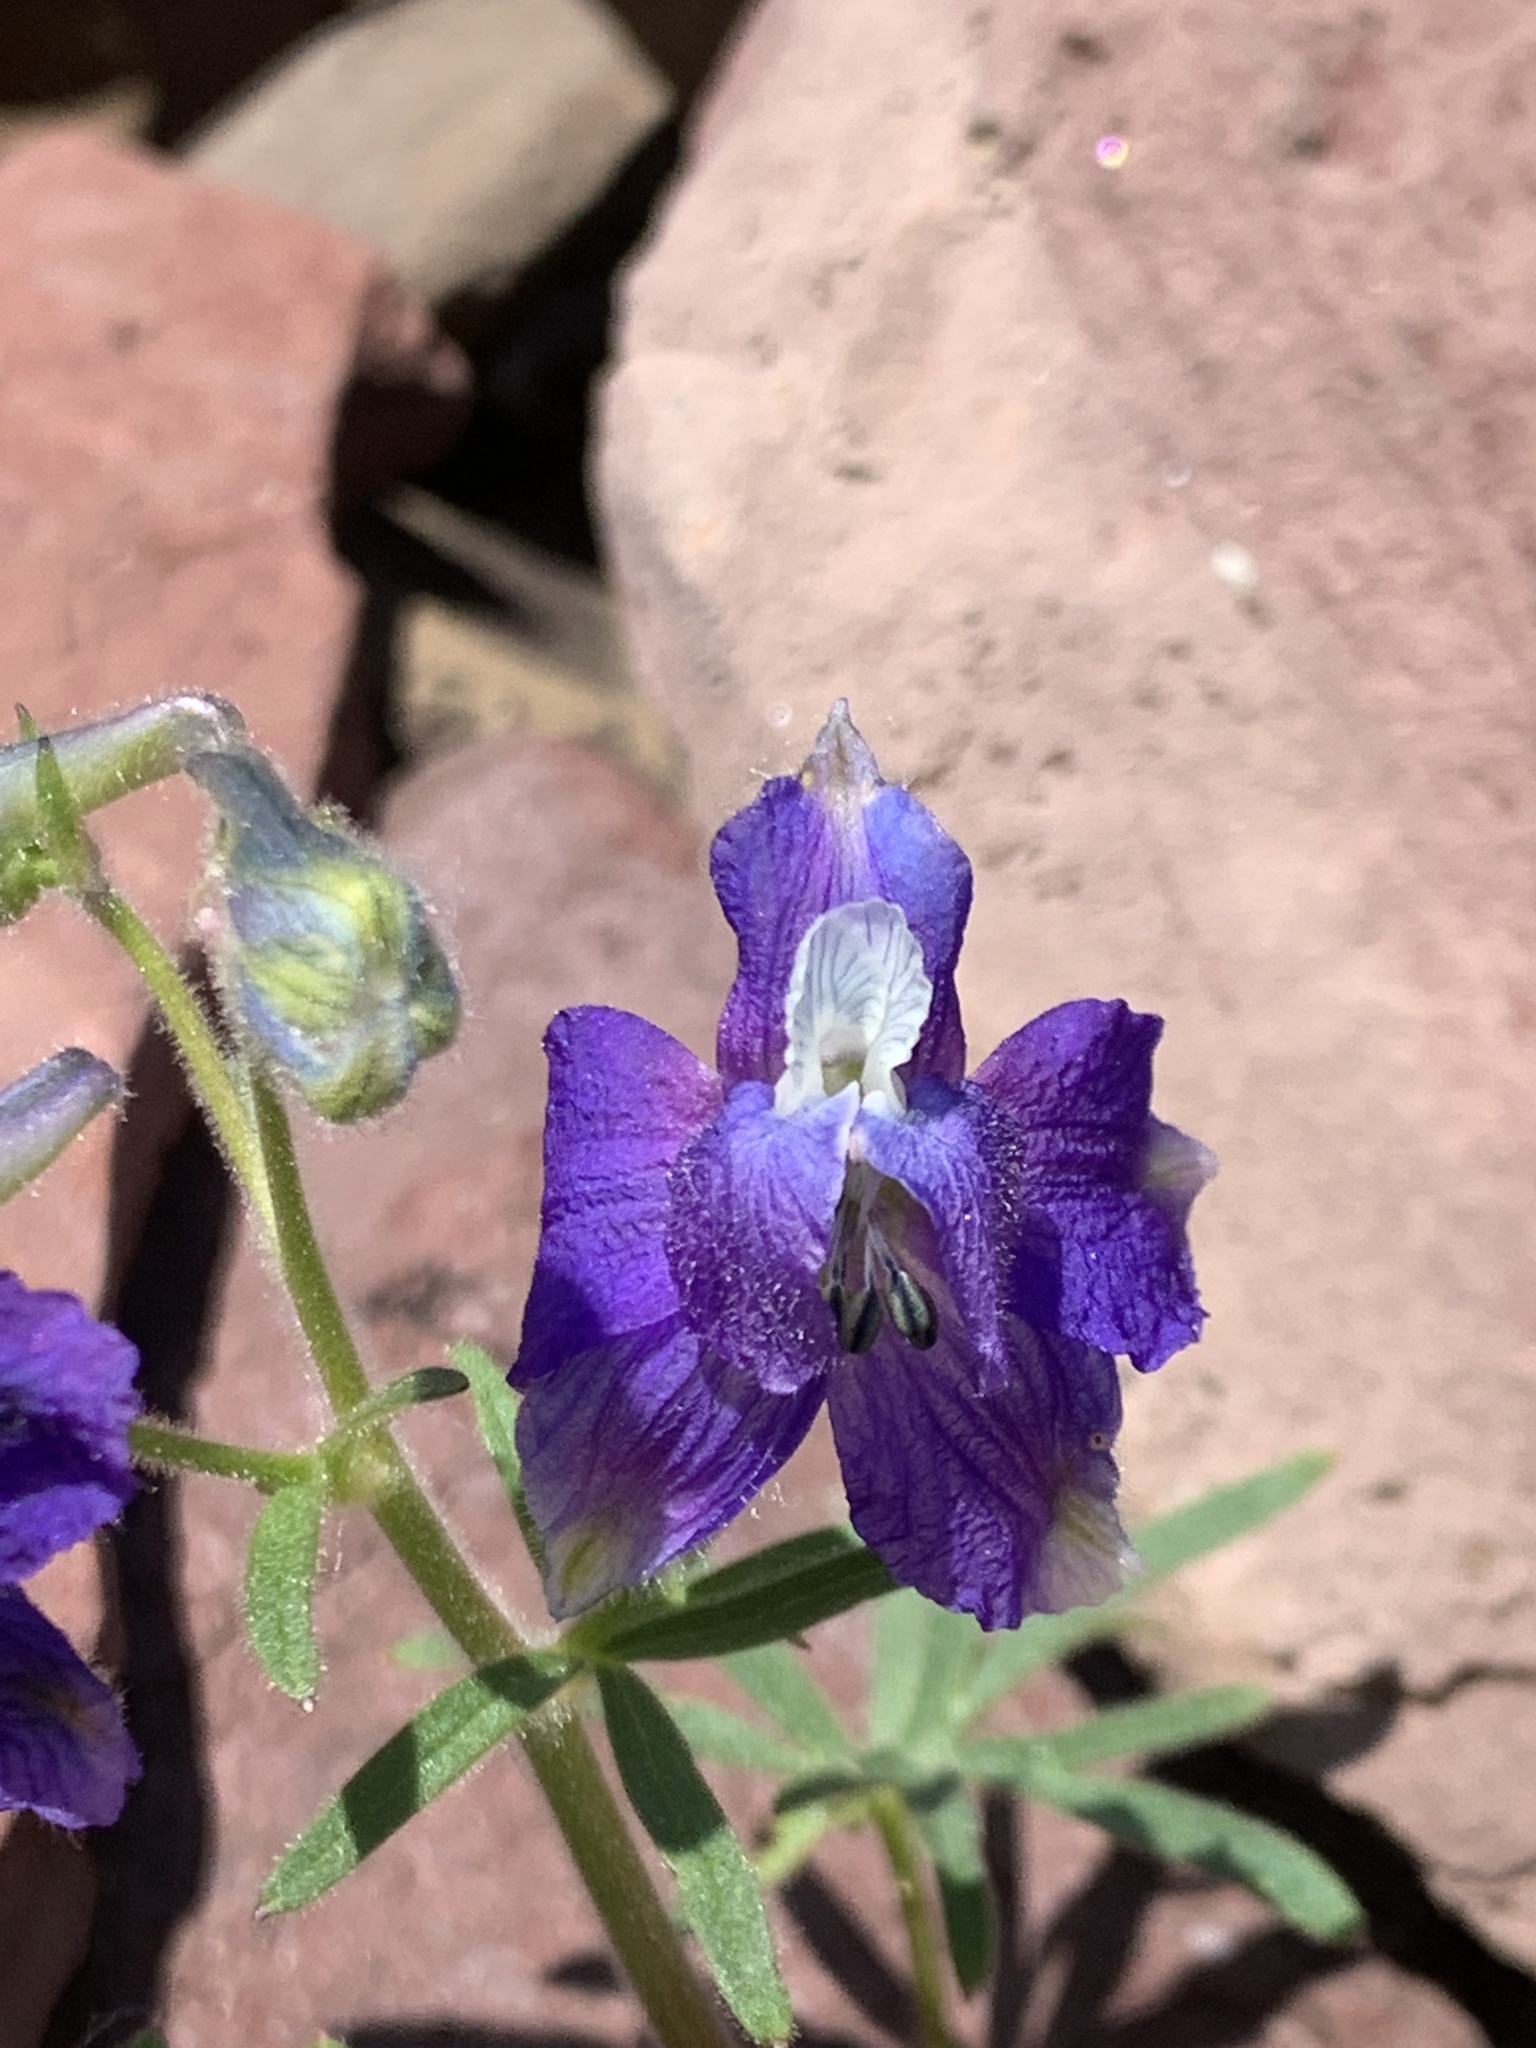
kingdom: Plantae
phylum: Tracheophyta
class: Magnoliopsida
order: Ranunculales
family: Ranunculaceae
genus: Delphinium
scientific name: Delphinium bicolor
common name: Low larkspur
